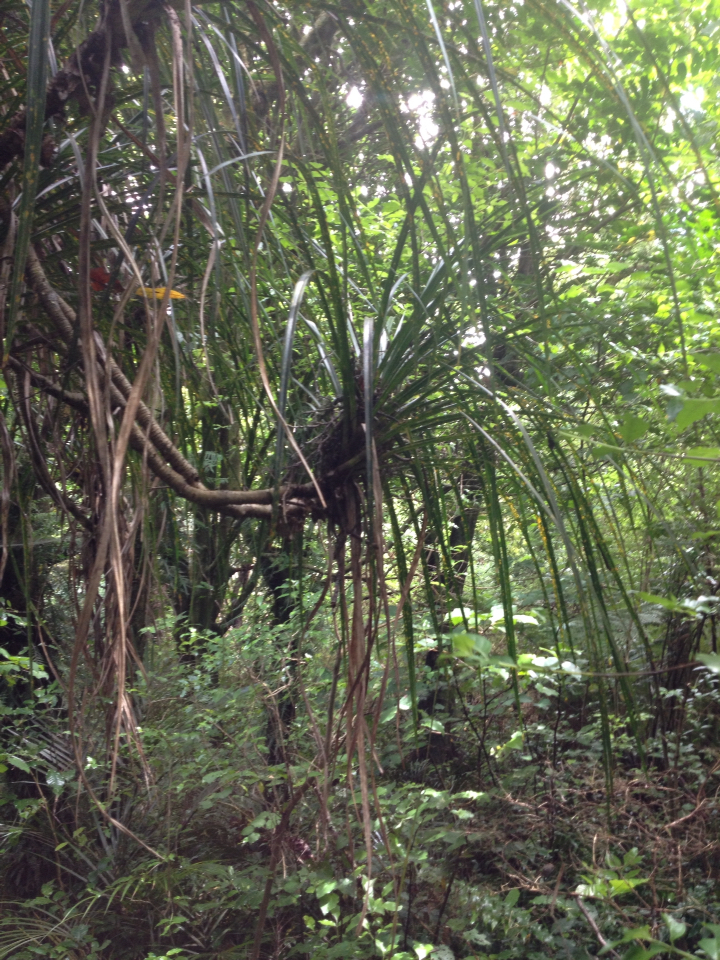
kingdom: Plantae
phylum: Tracheophyta
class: Liliopsida
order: Pandanales
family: Pandanaceae
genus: Freycinetia
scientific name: Freycinetia banksii
